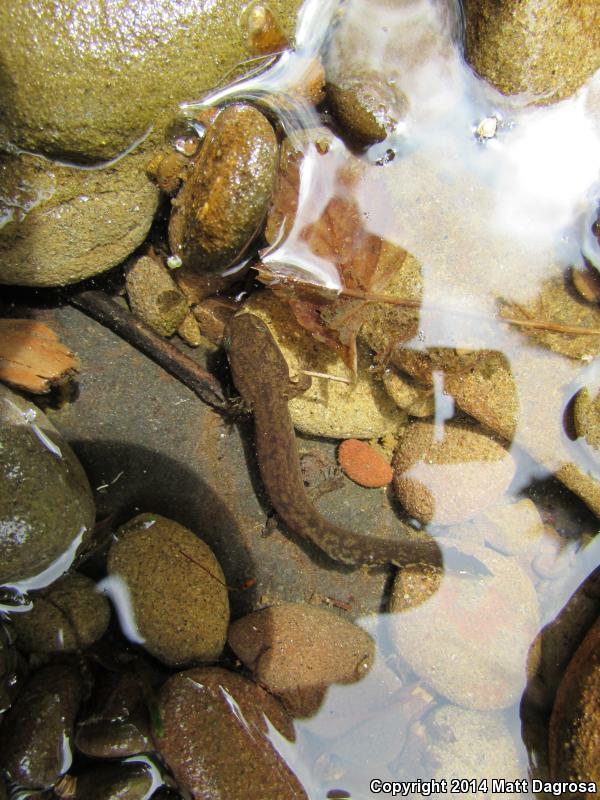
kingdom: Animalia
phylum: Chordata
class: Amphibia
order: Caudata
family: Ambystomatidae
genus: Dicamptodon
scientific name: Dicamptodon tenebrosus
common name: Coastal giant salamander
